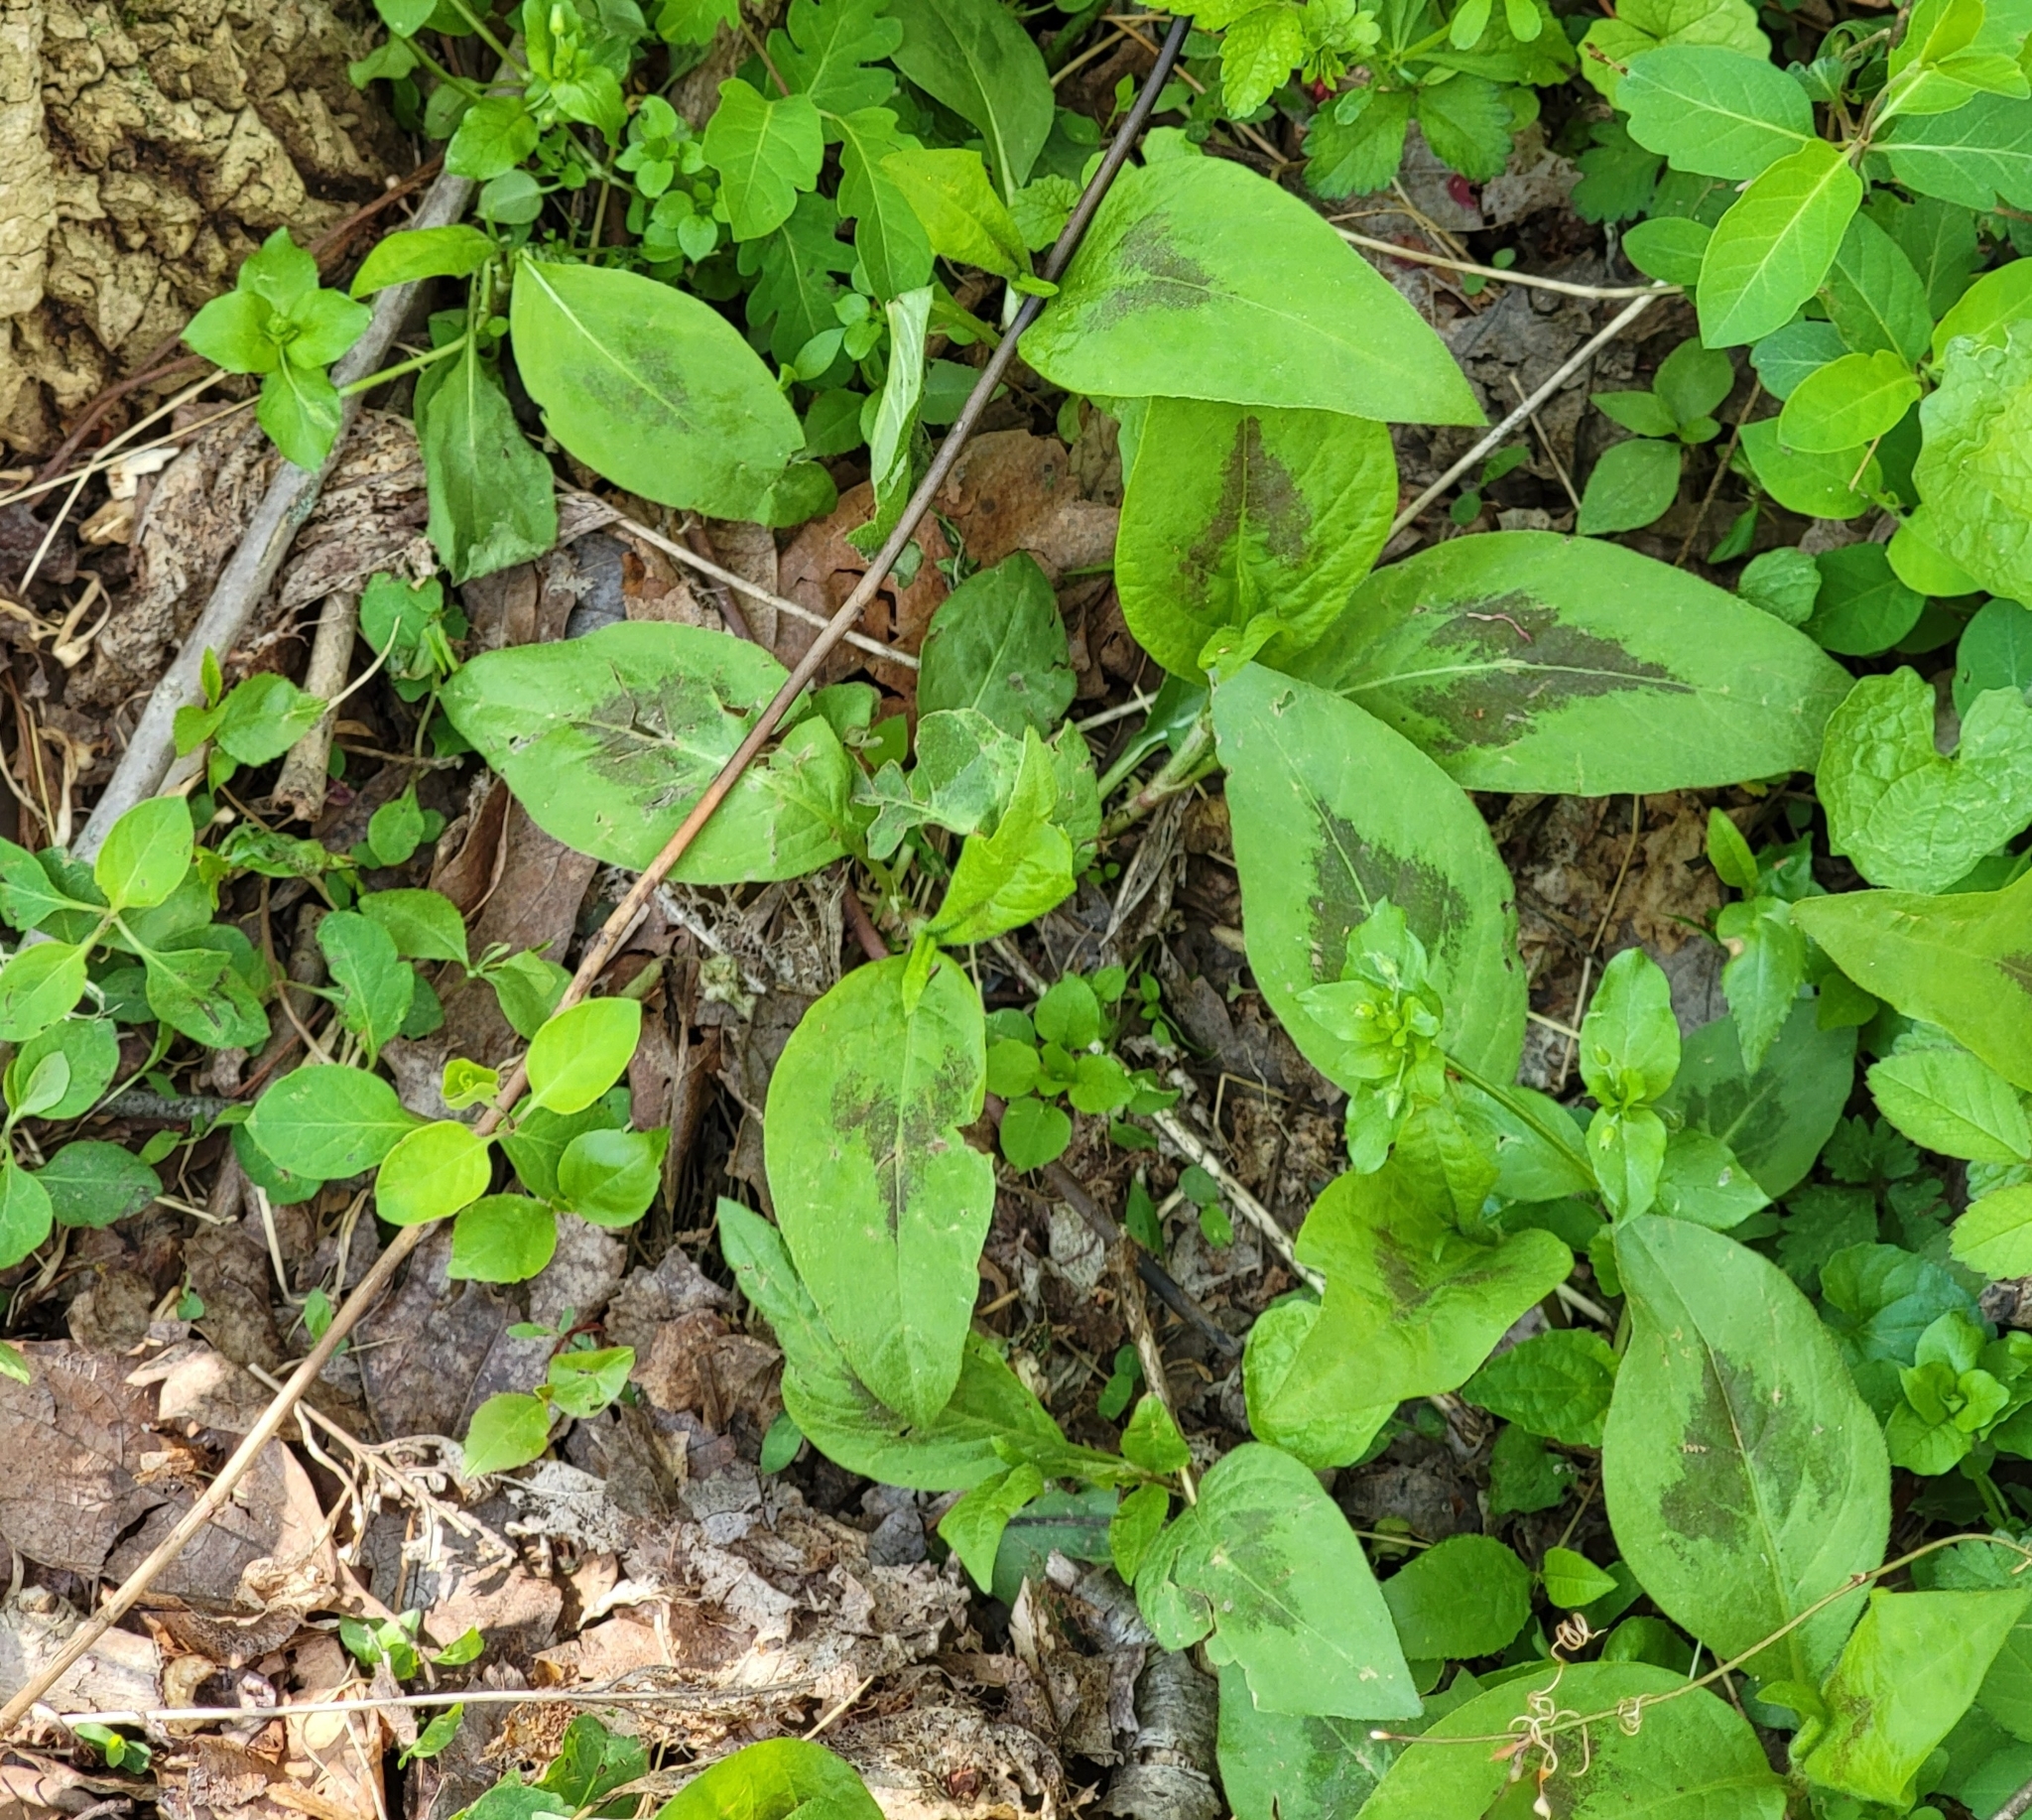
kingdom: Plantae
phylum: Tracheophyta
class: Magnoliopsida
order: Caryophyllales
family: Polygonaceae
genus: Persicaria
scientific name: Persicaria virginiana
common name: Jumpseed
